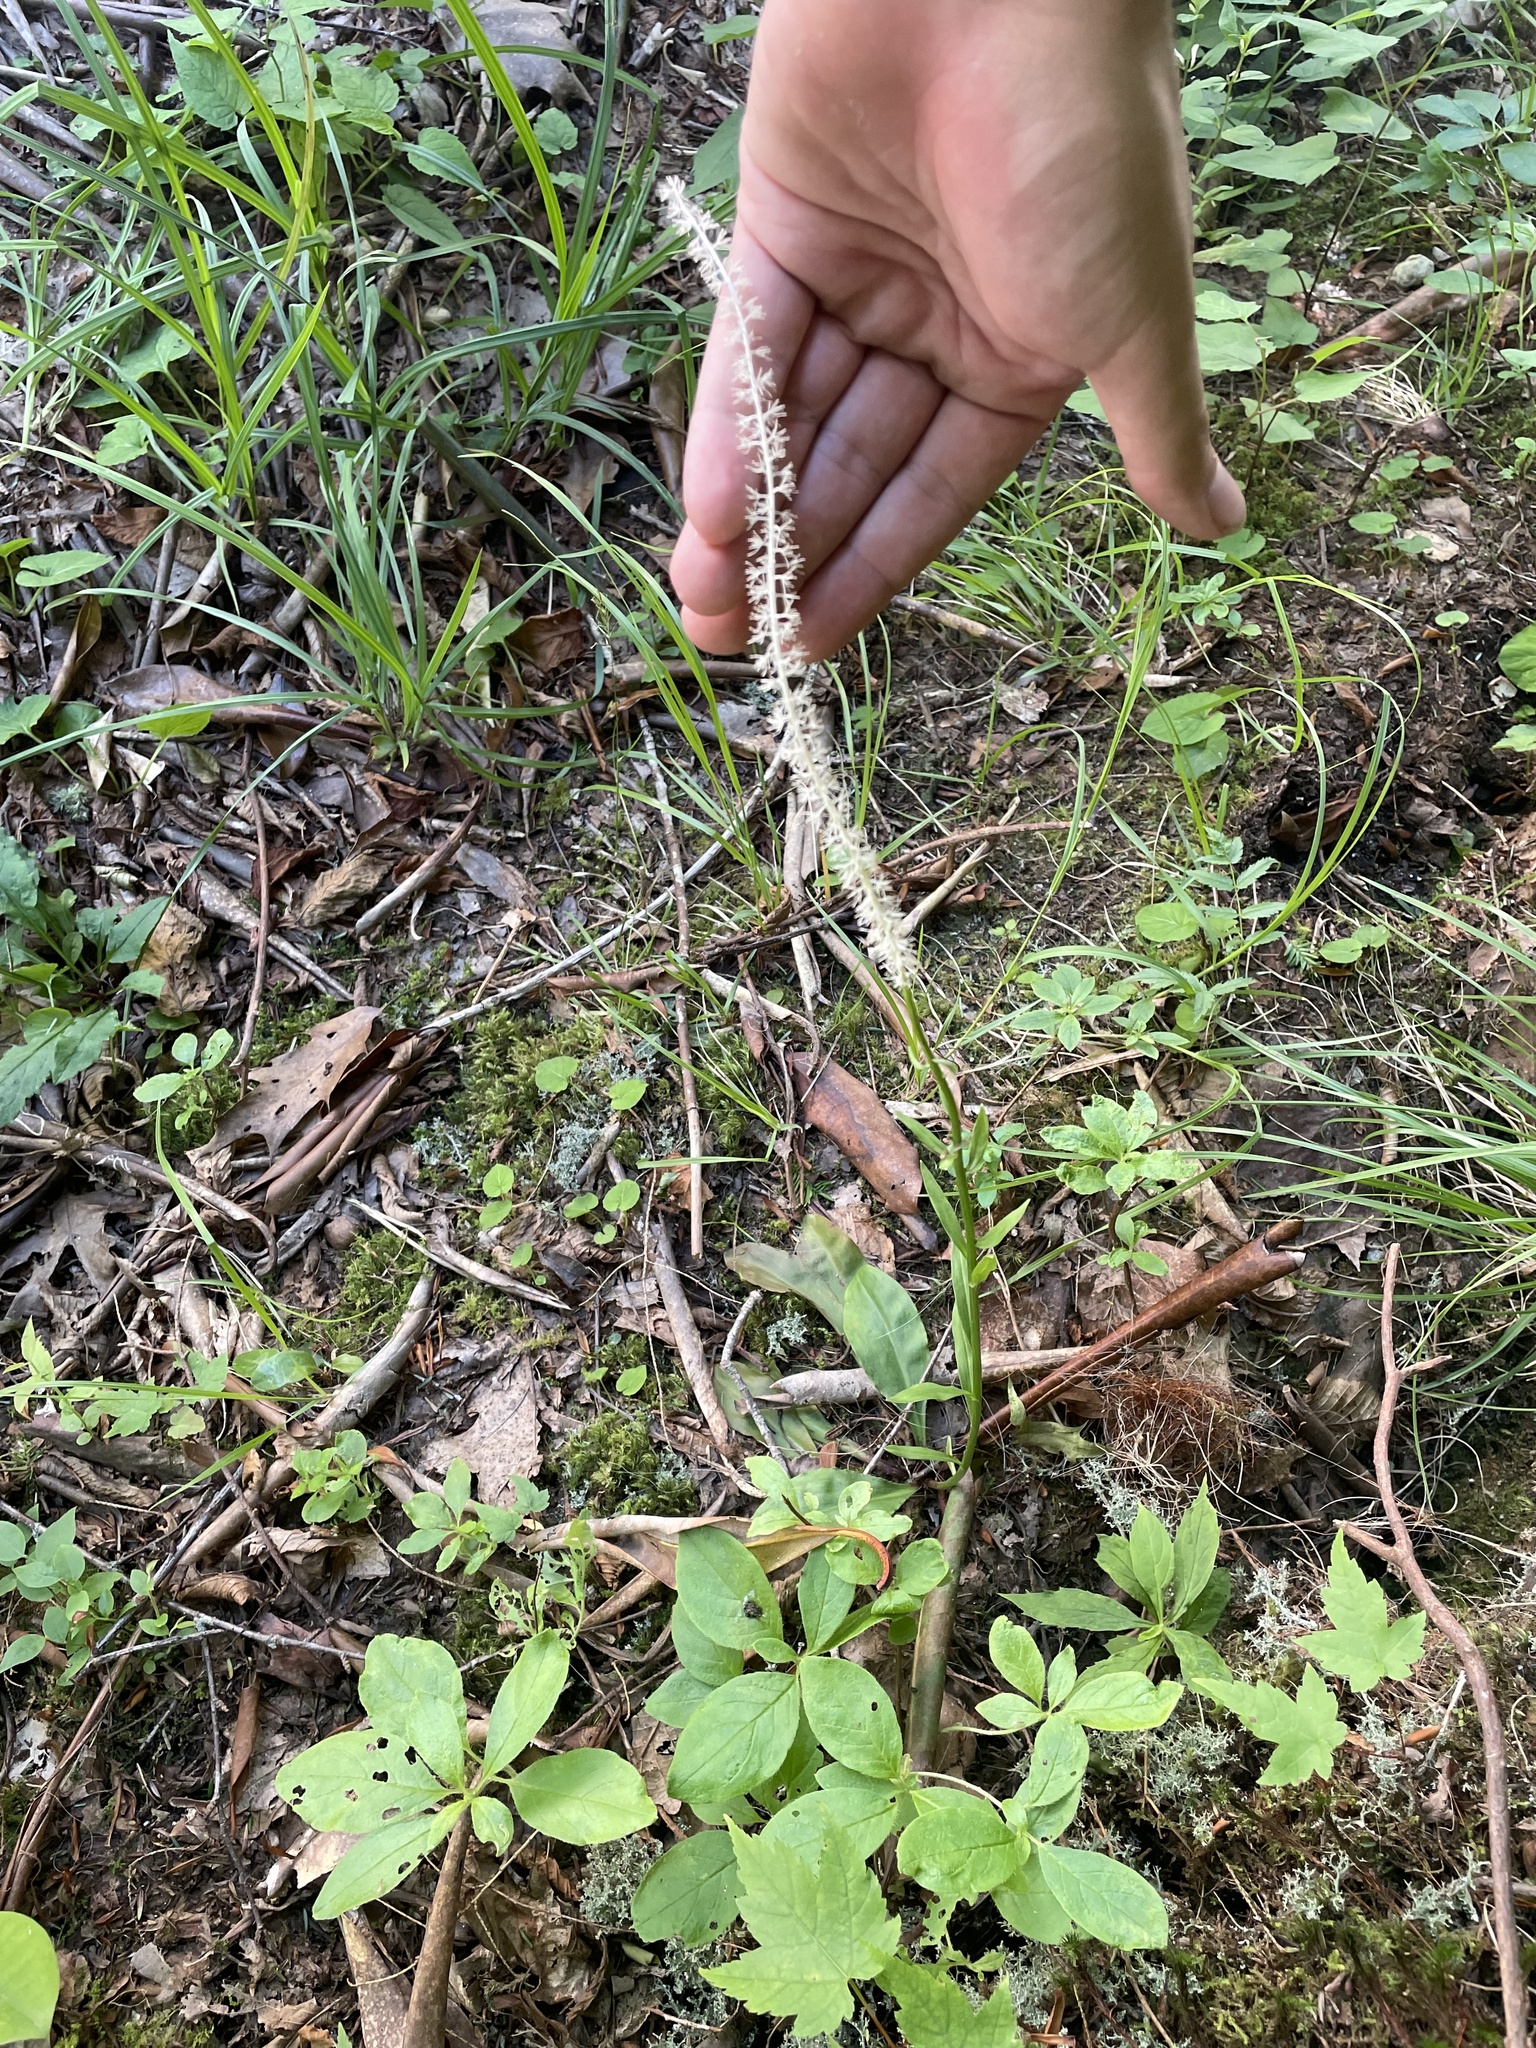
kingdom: Plantae
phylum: Tracheophyta
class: Liliopsida
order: Liliales
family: Melanthiaceae
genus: Chamaelirium
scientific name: Chamaelirium luteum
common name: Fairy-wand
